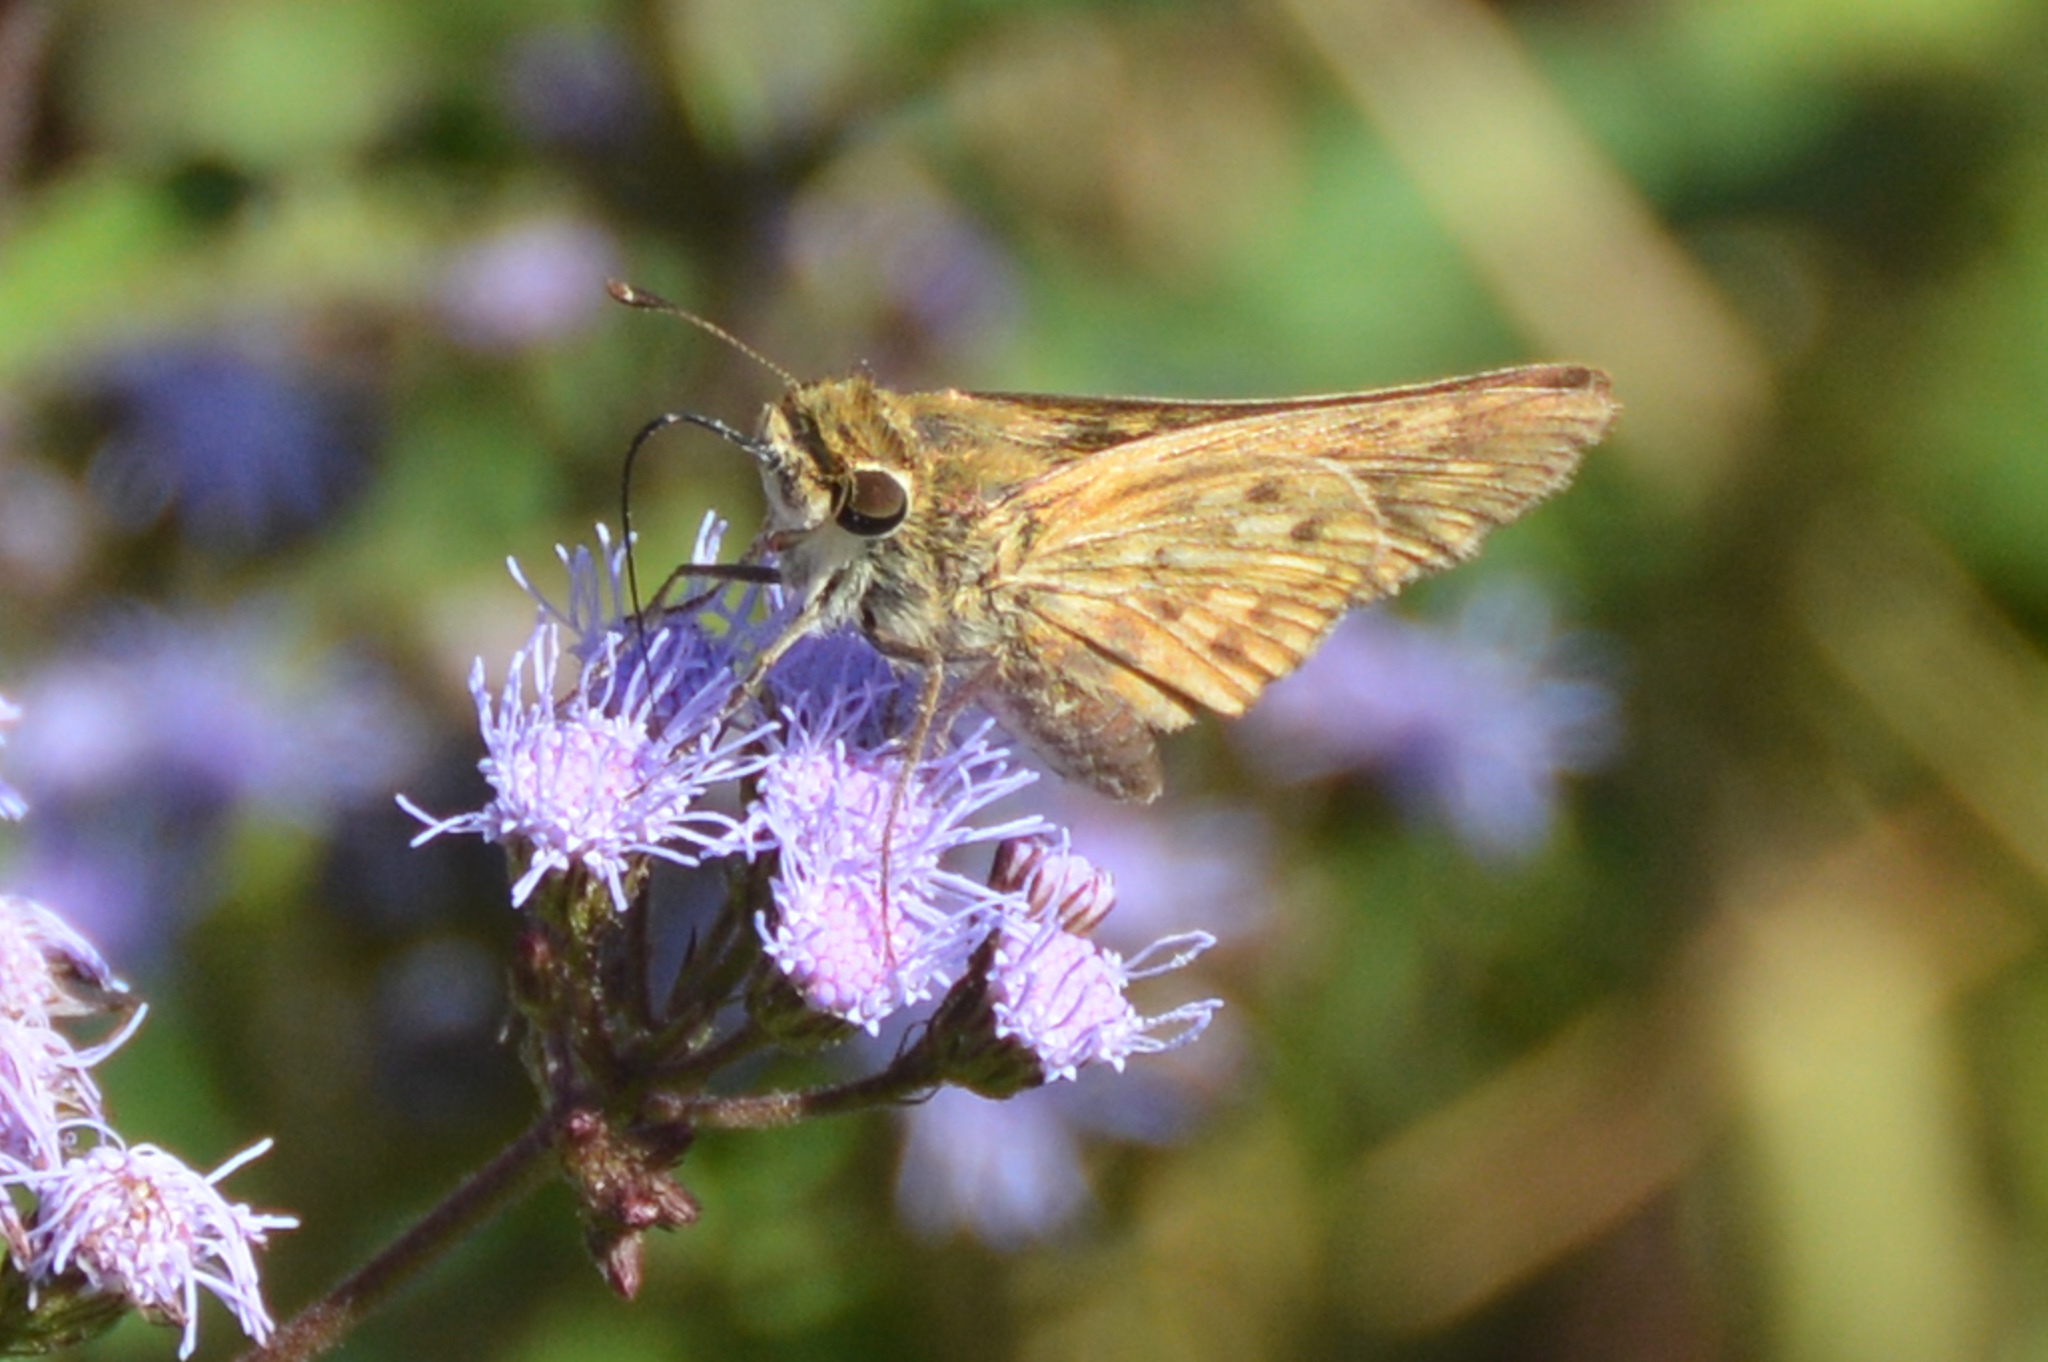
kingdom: Animalia
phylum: Arthropoda
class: Insecta
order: Lepidoptera
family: Hesperiidae
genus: Hylephila
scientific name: Hylephila phyleus
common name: Fiery skipper
